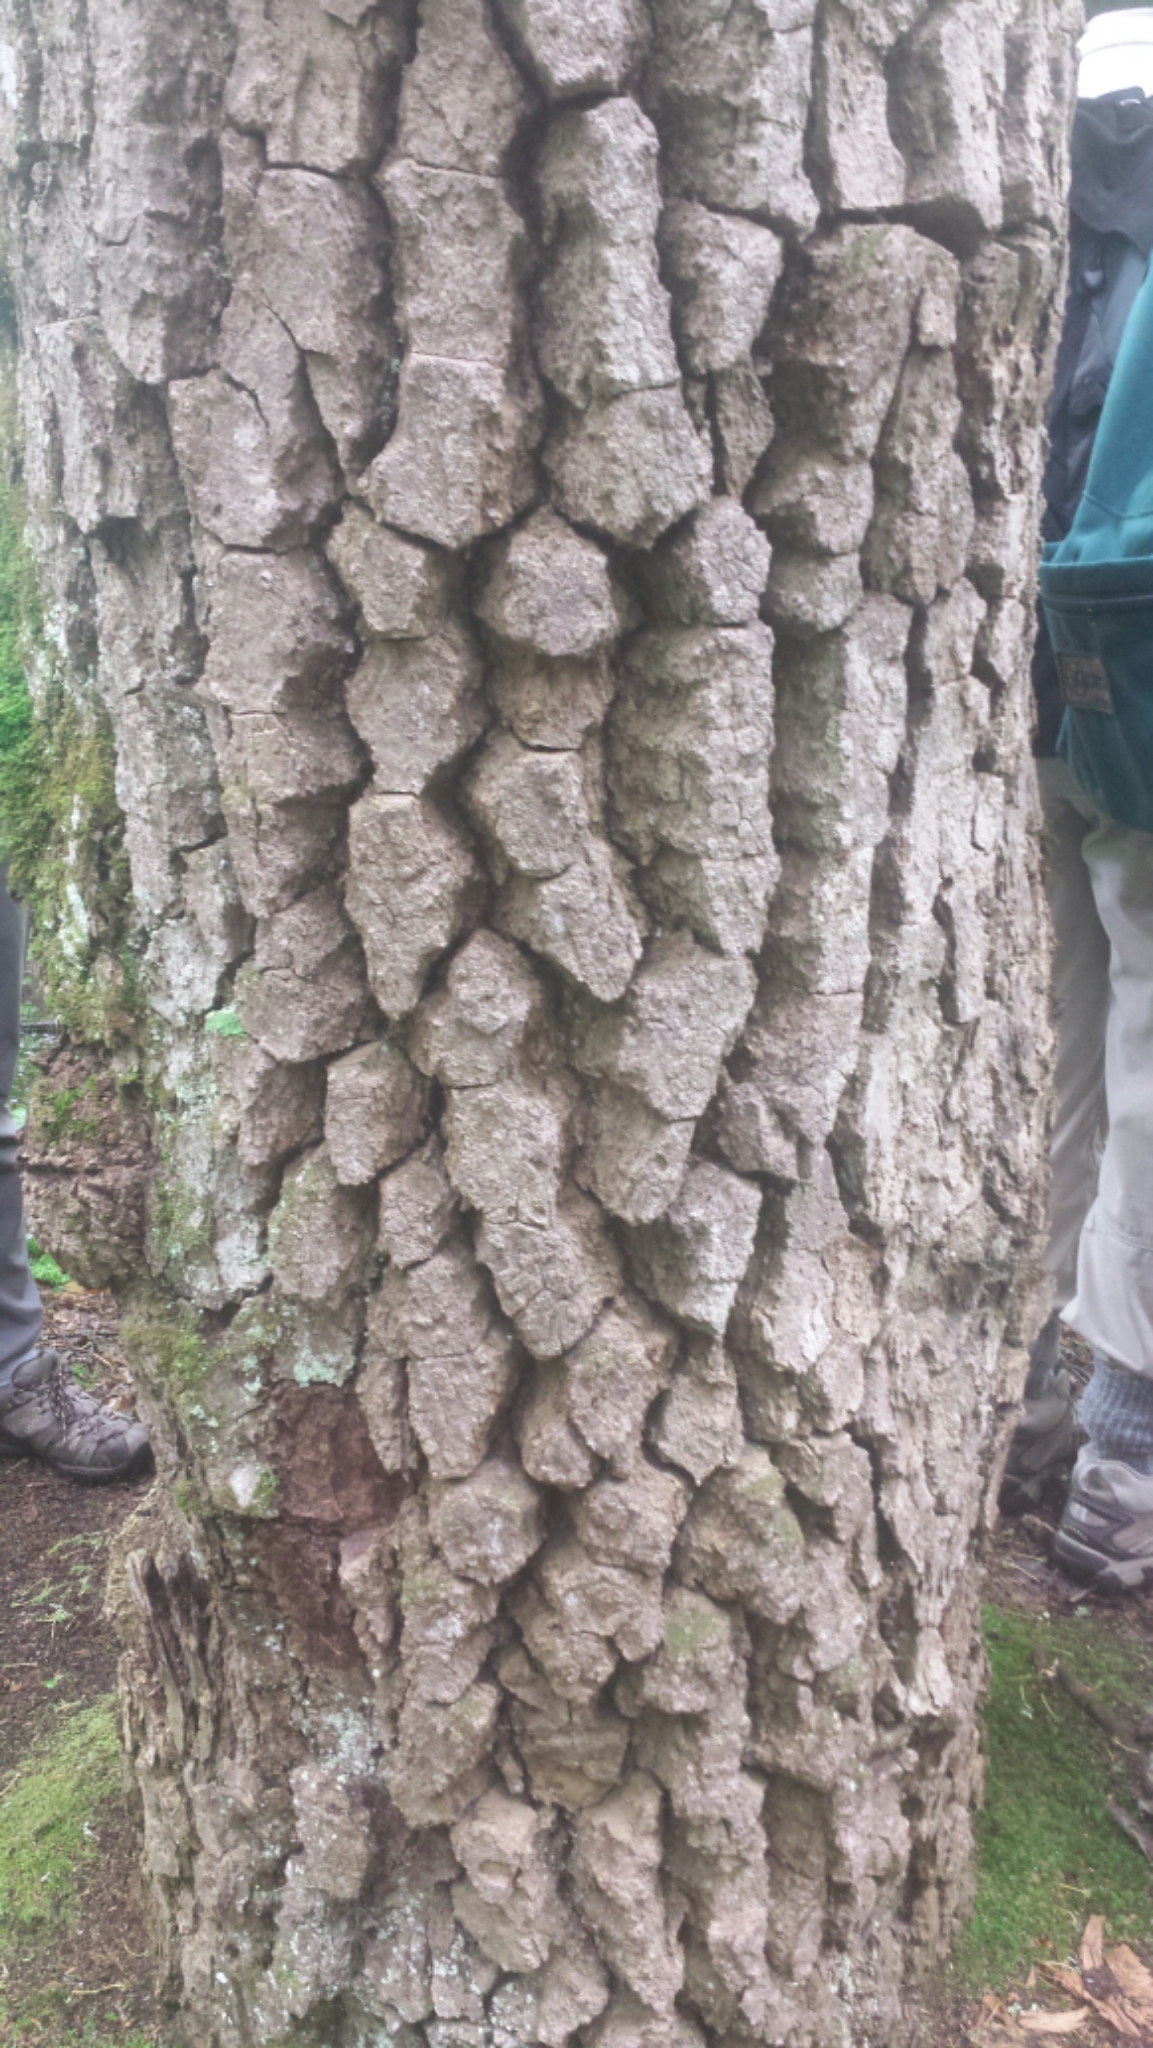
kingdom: Plantae
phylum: Tracheophyta
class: Magnoliopsida
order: Cornales
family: Nyssaceae
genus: Nyssa
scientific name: Nyssa sylvatica
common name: Black tupelo
